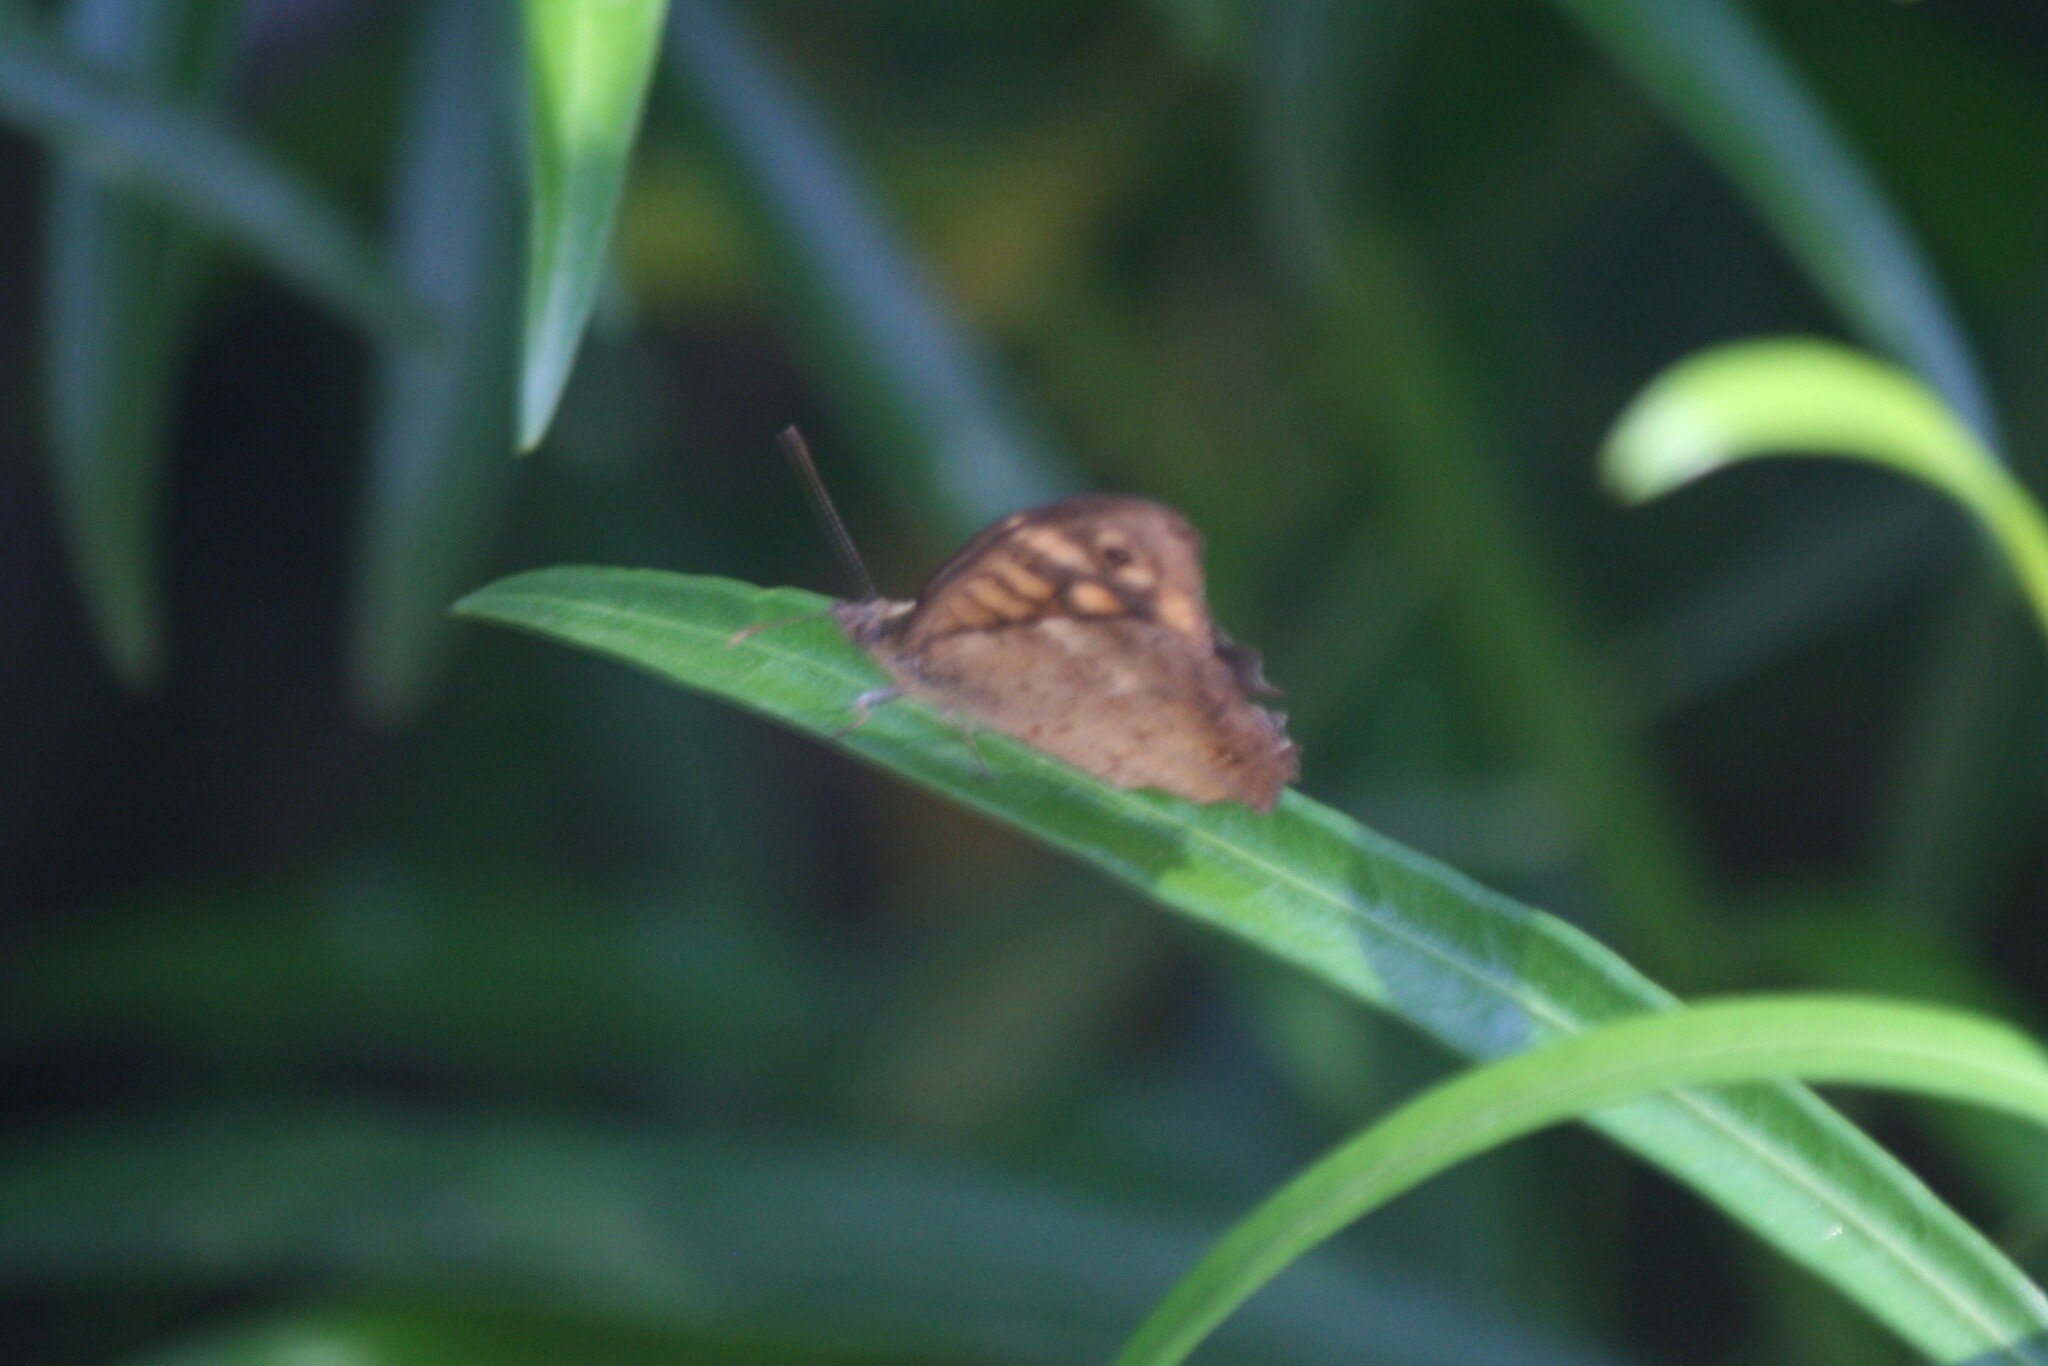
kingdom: Animalia
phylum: Arthropoda
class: Insecta
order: Lepidoptera
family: Nymphalidae
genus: Pararge
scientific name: Pararge aegeria
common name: Speckled wood
